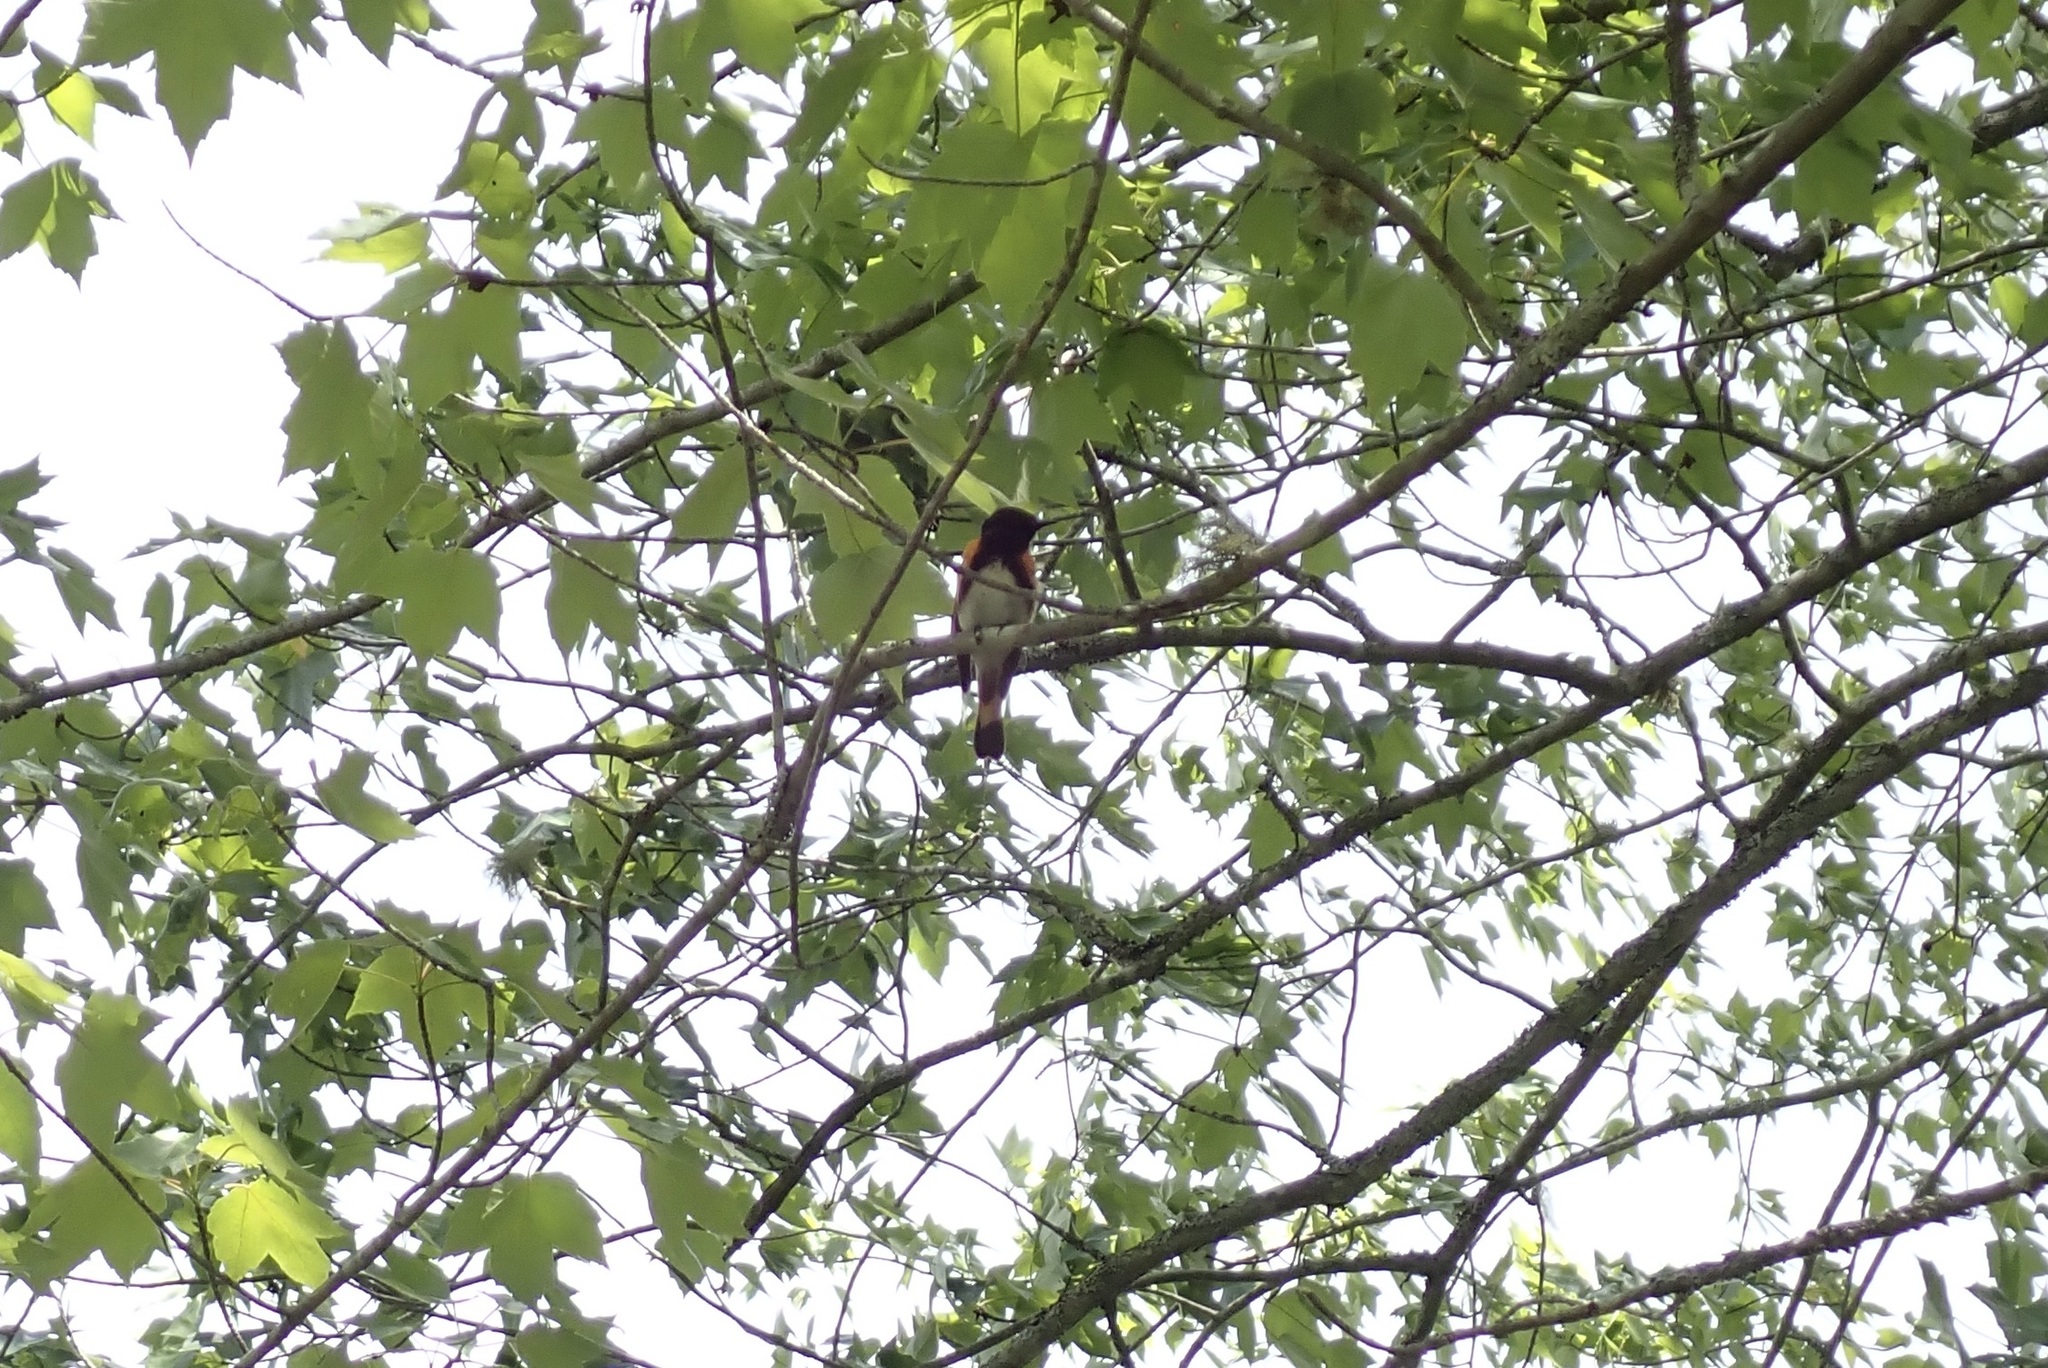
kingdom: Animalia
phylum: Chordata
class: Aves
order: Passeriformes
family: Parulidae
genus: Setophaga
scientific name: Setophaga ruticilla
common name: American redstart
